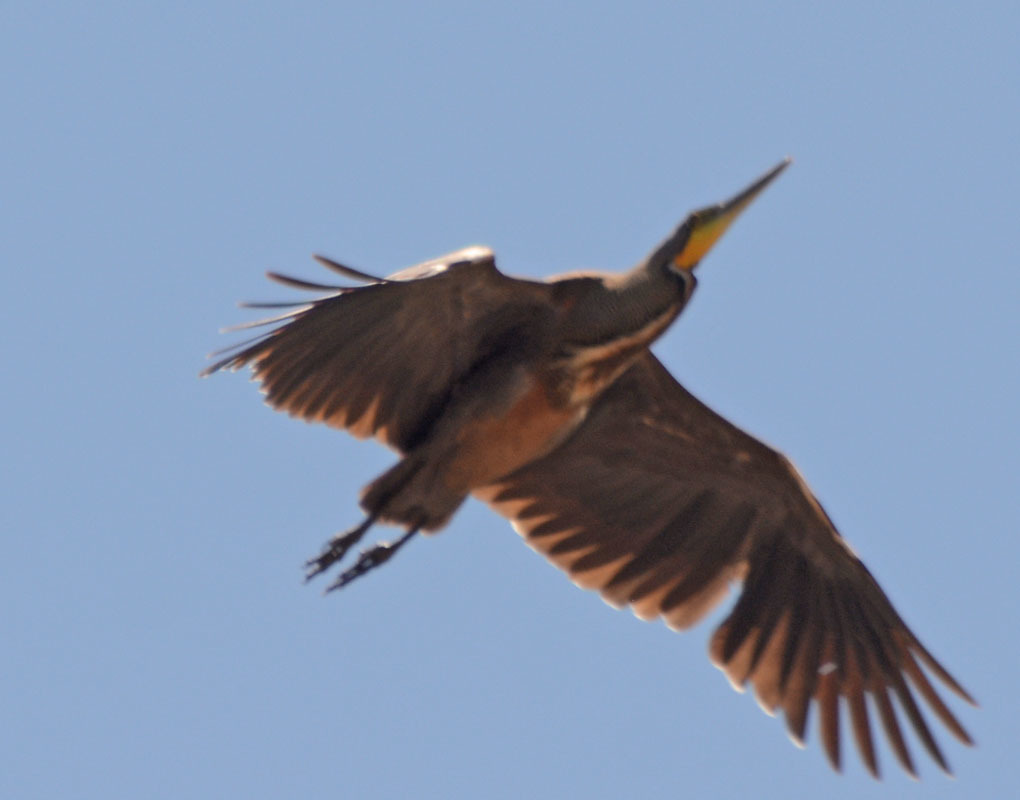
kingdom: Animalia
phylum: Chordata
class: Aves
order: Pelecaniformes
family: Ardeidae
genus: Tigrisoma
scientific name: Tigrisoma mexicanum
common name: Bare-throated tiger-heron
